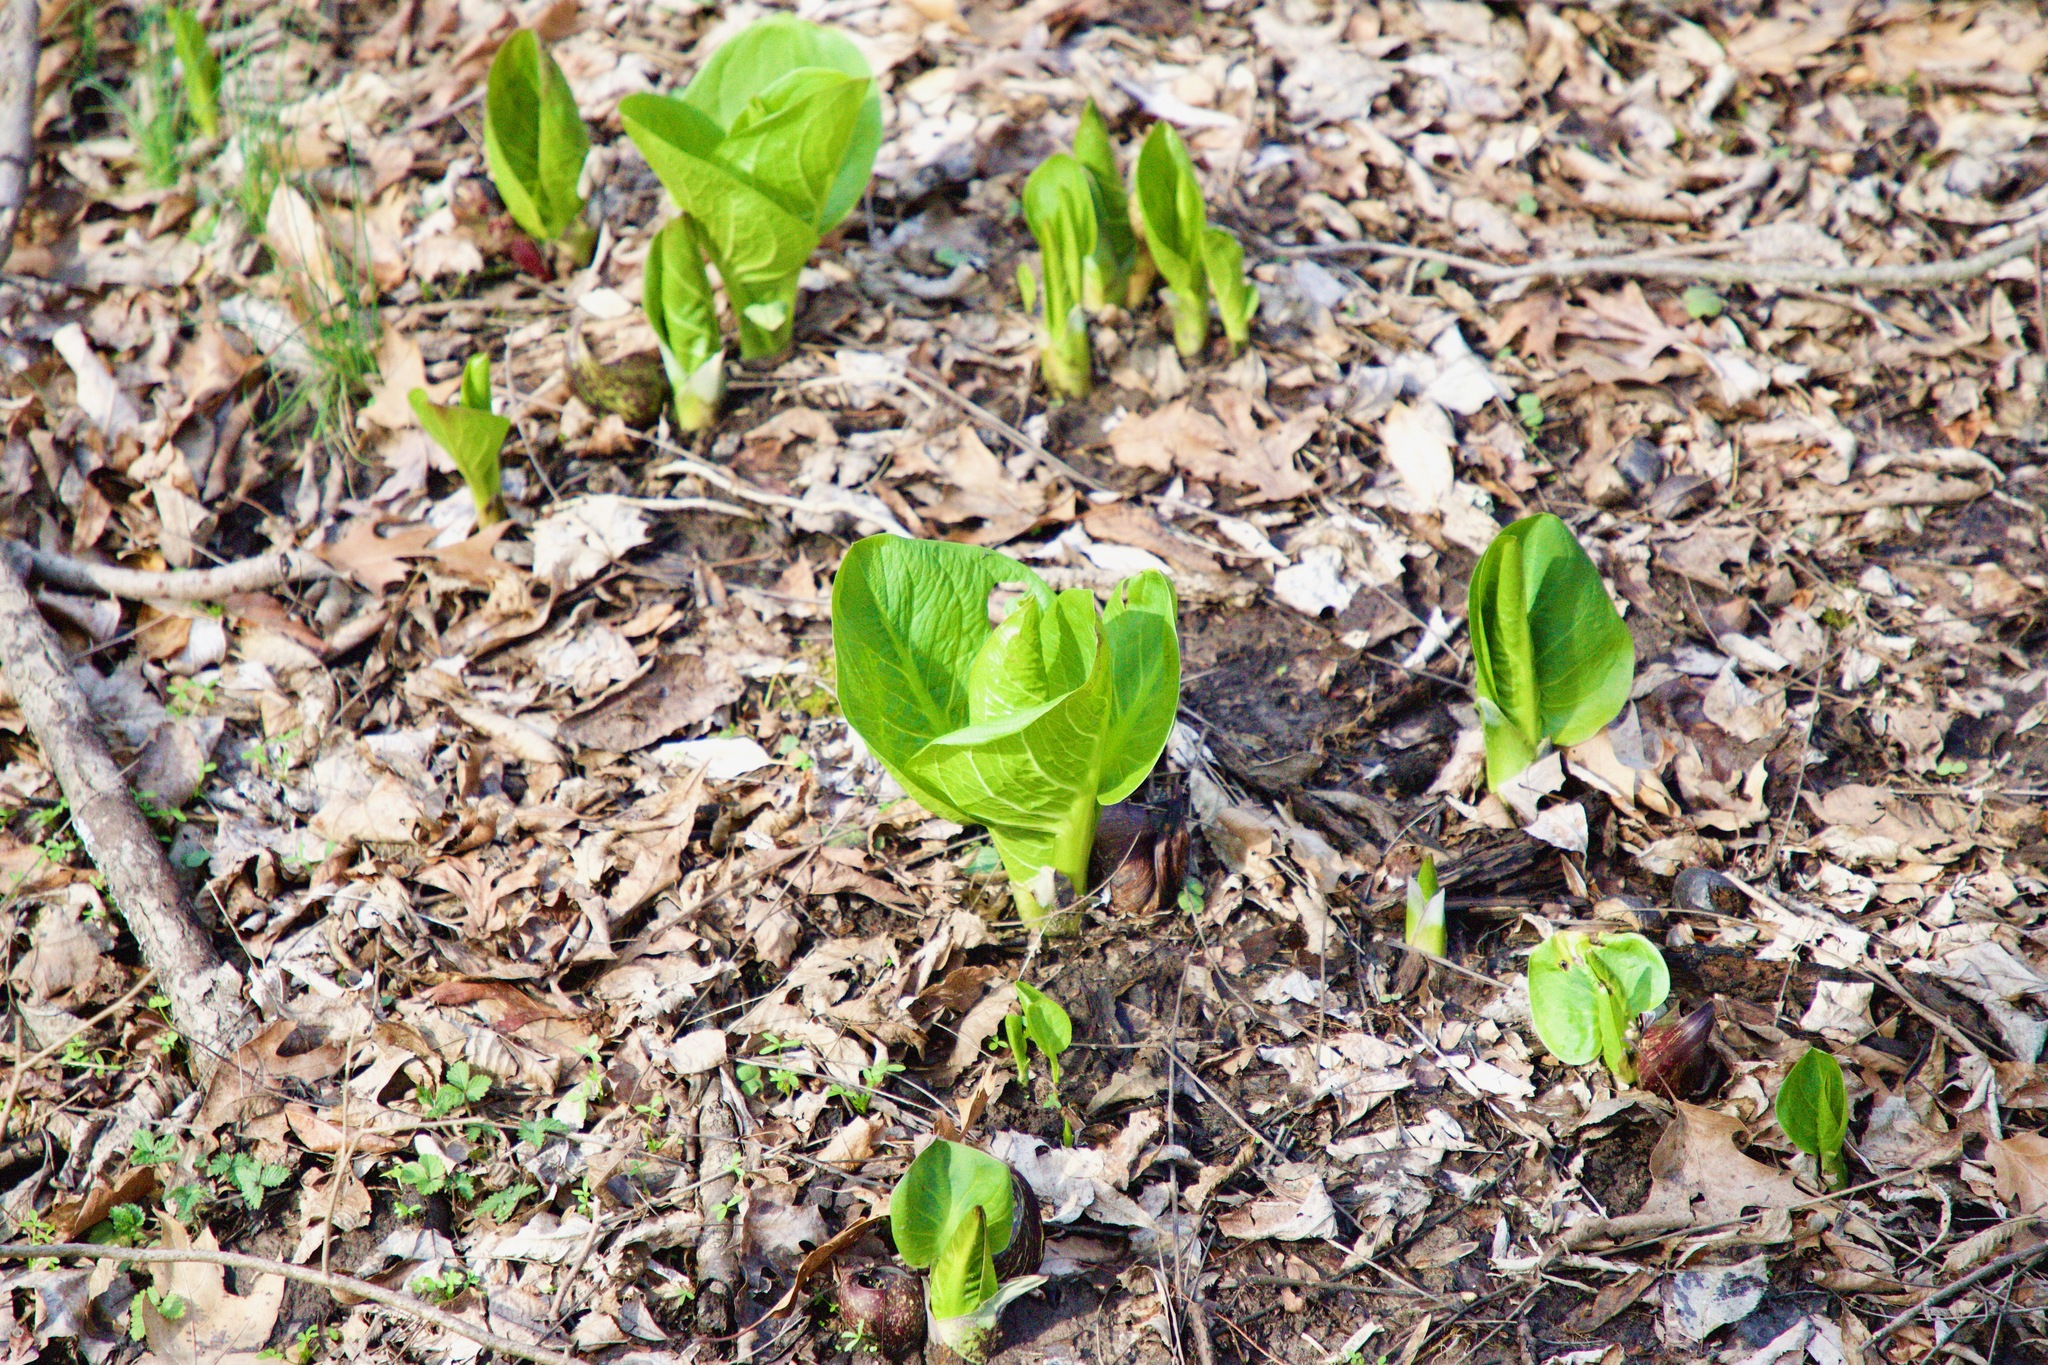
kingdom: Plantae
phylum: Tracheophyta
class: Liliopsida
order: Alismatales
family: Araceae
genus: Symplocarpus
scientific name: Symplocarpus foetidus
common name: Eastern skunk cabbage
